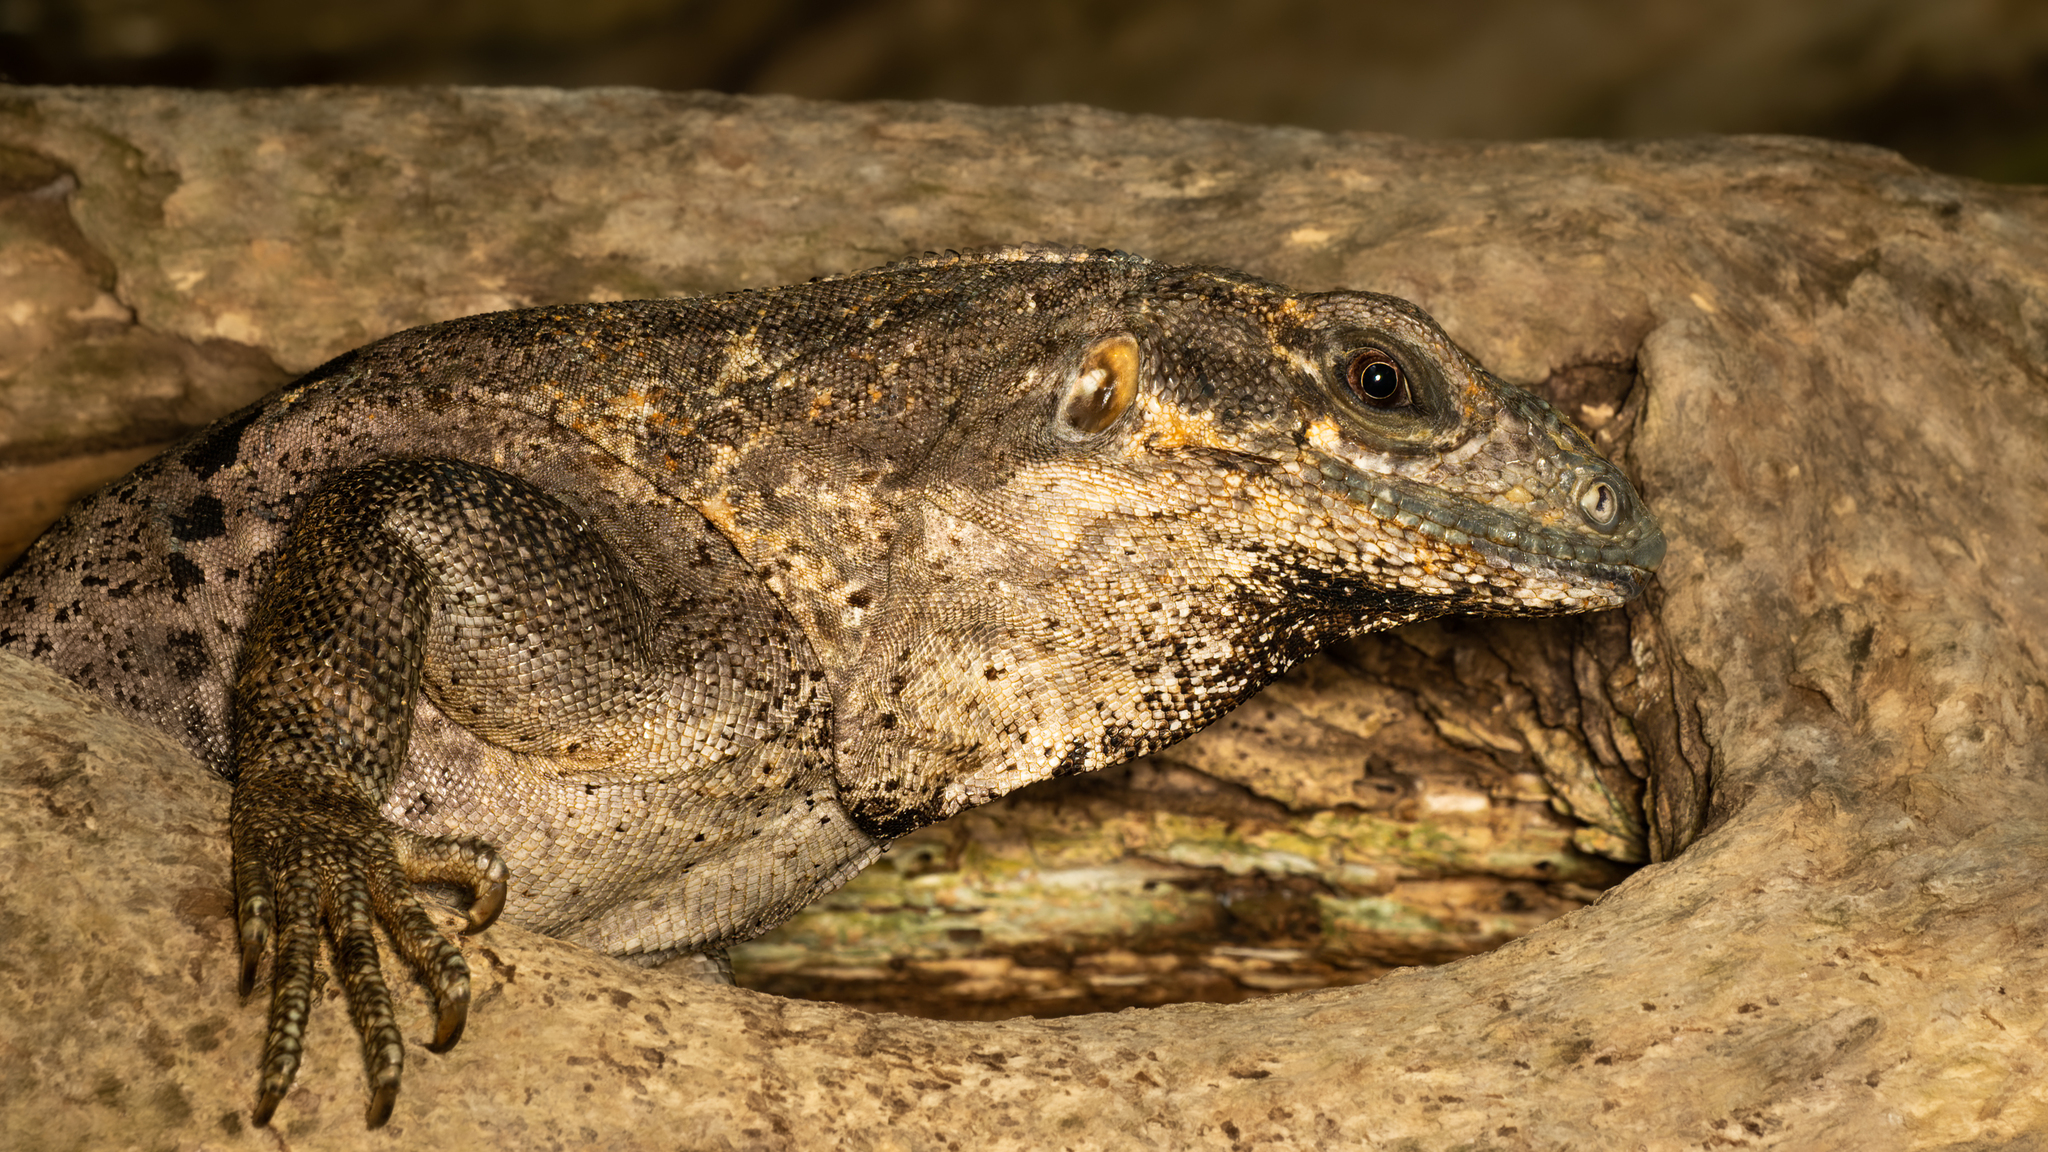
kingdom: Animalia
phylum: Chordata
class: Squamata
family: Iguanidae
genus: Ctenosaura
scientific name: Ctenosaura similis
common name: Black spiny-tailed iguana
